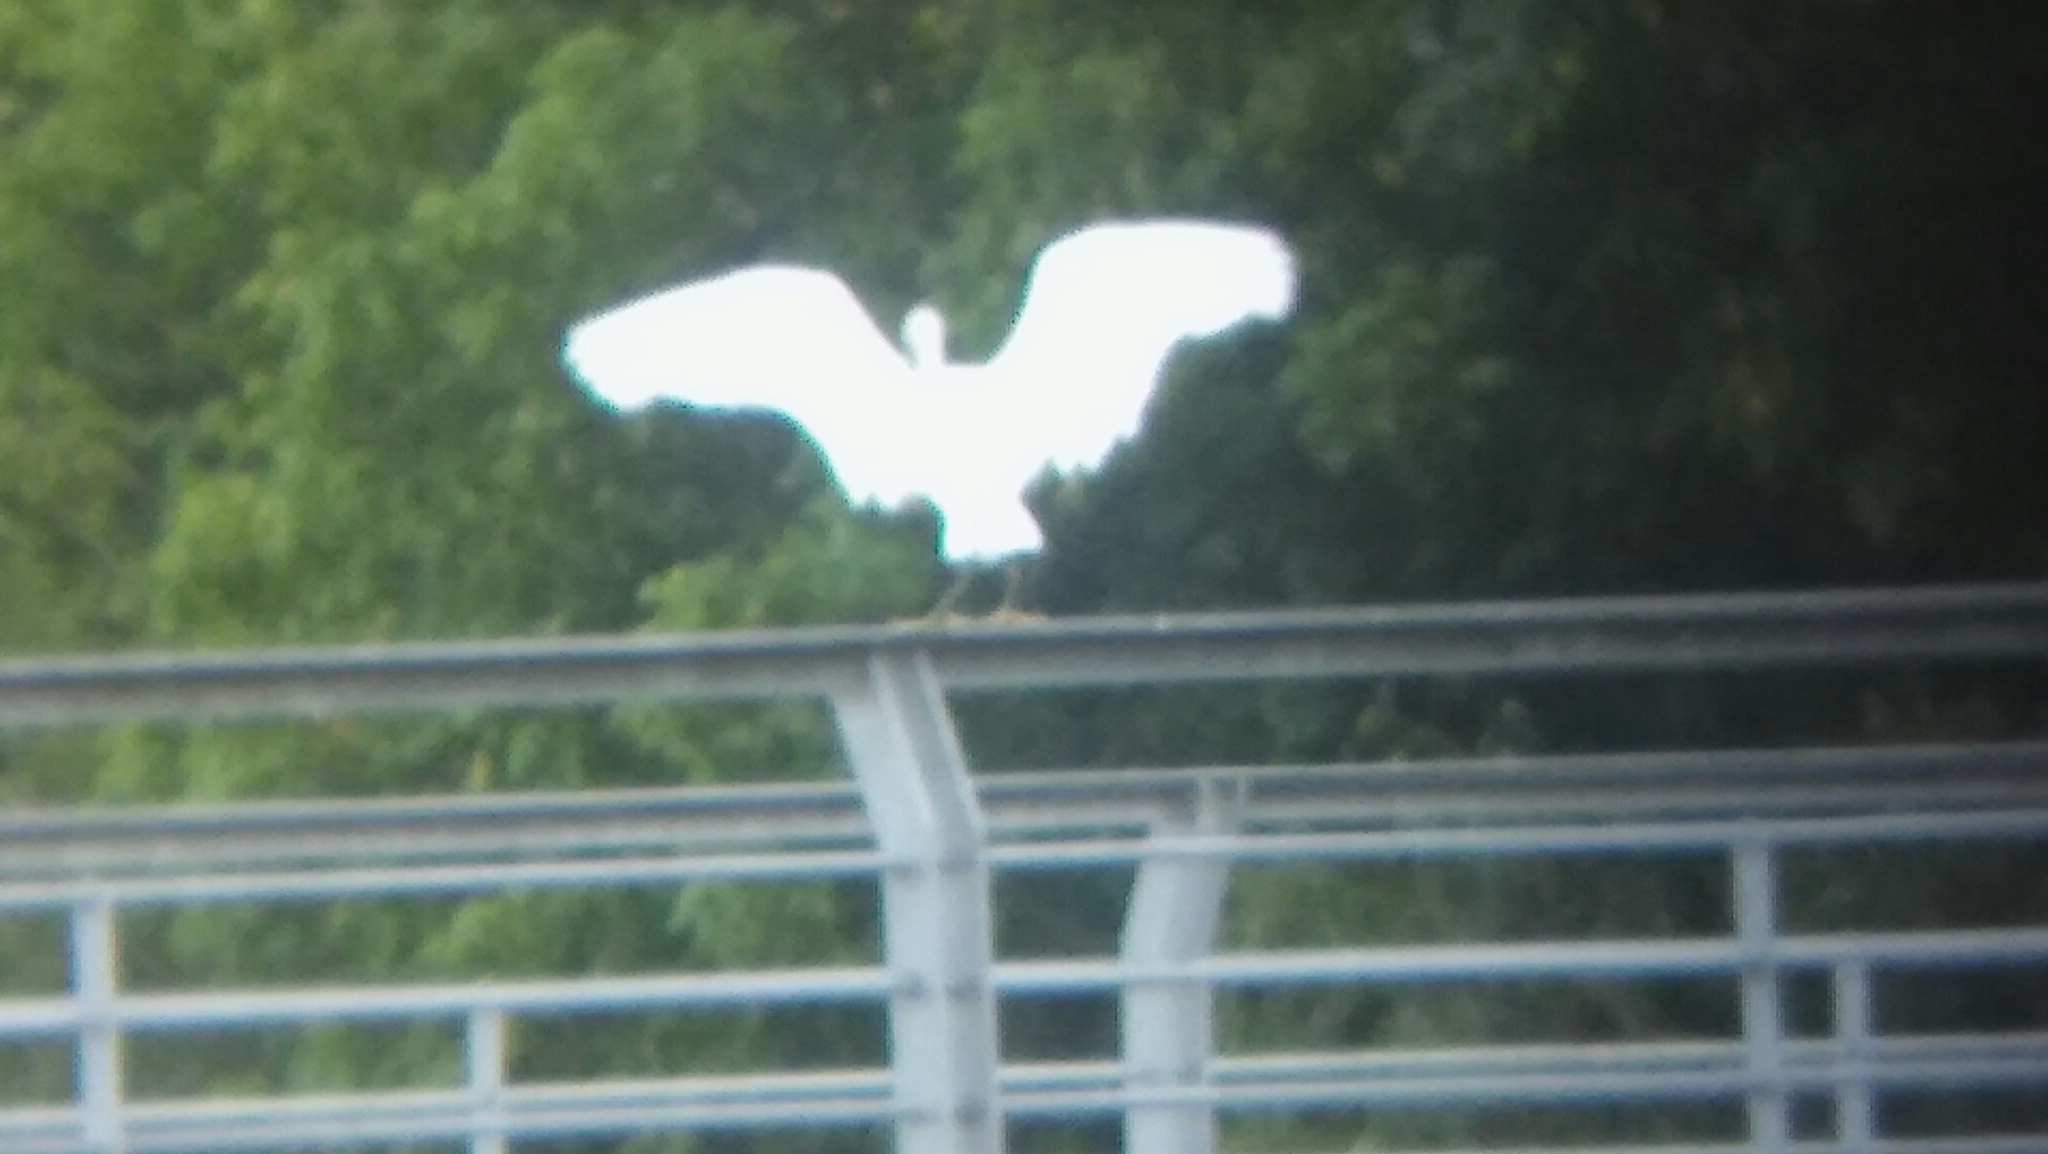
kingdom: Animalia
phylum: Chordata
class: Aves
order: Pelecaniformes
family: Ardeidae
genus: Egretta
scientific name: Egretta thula
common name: Snowy egret
